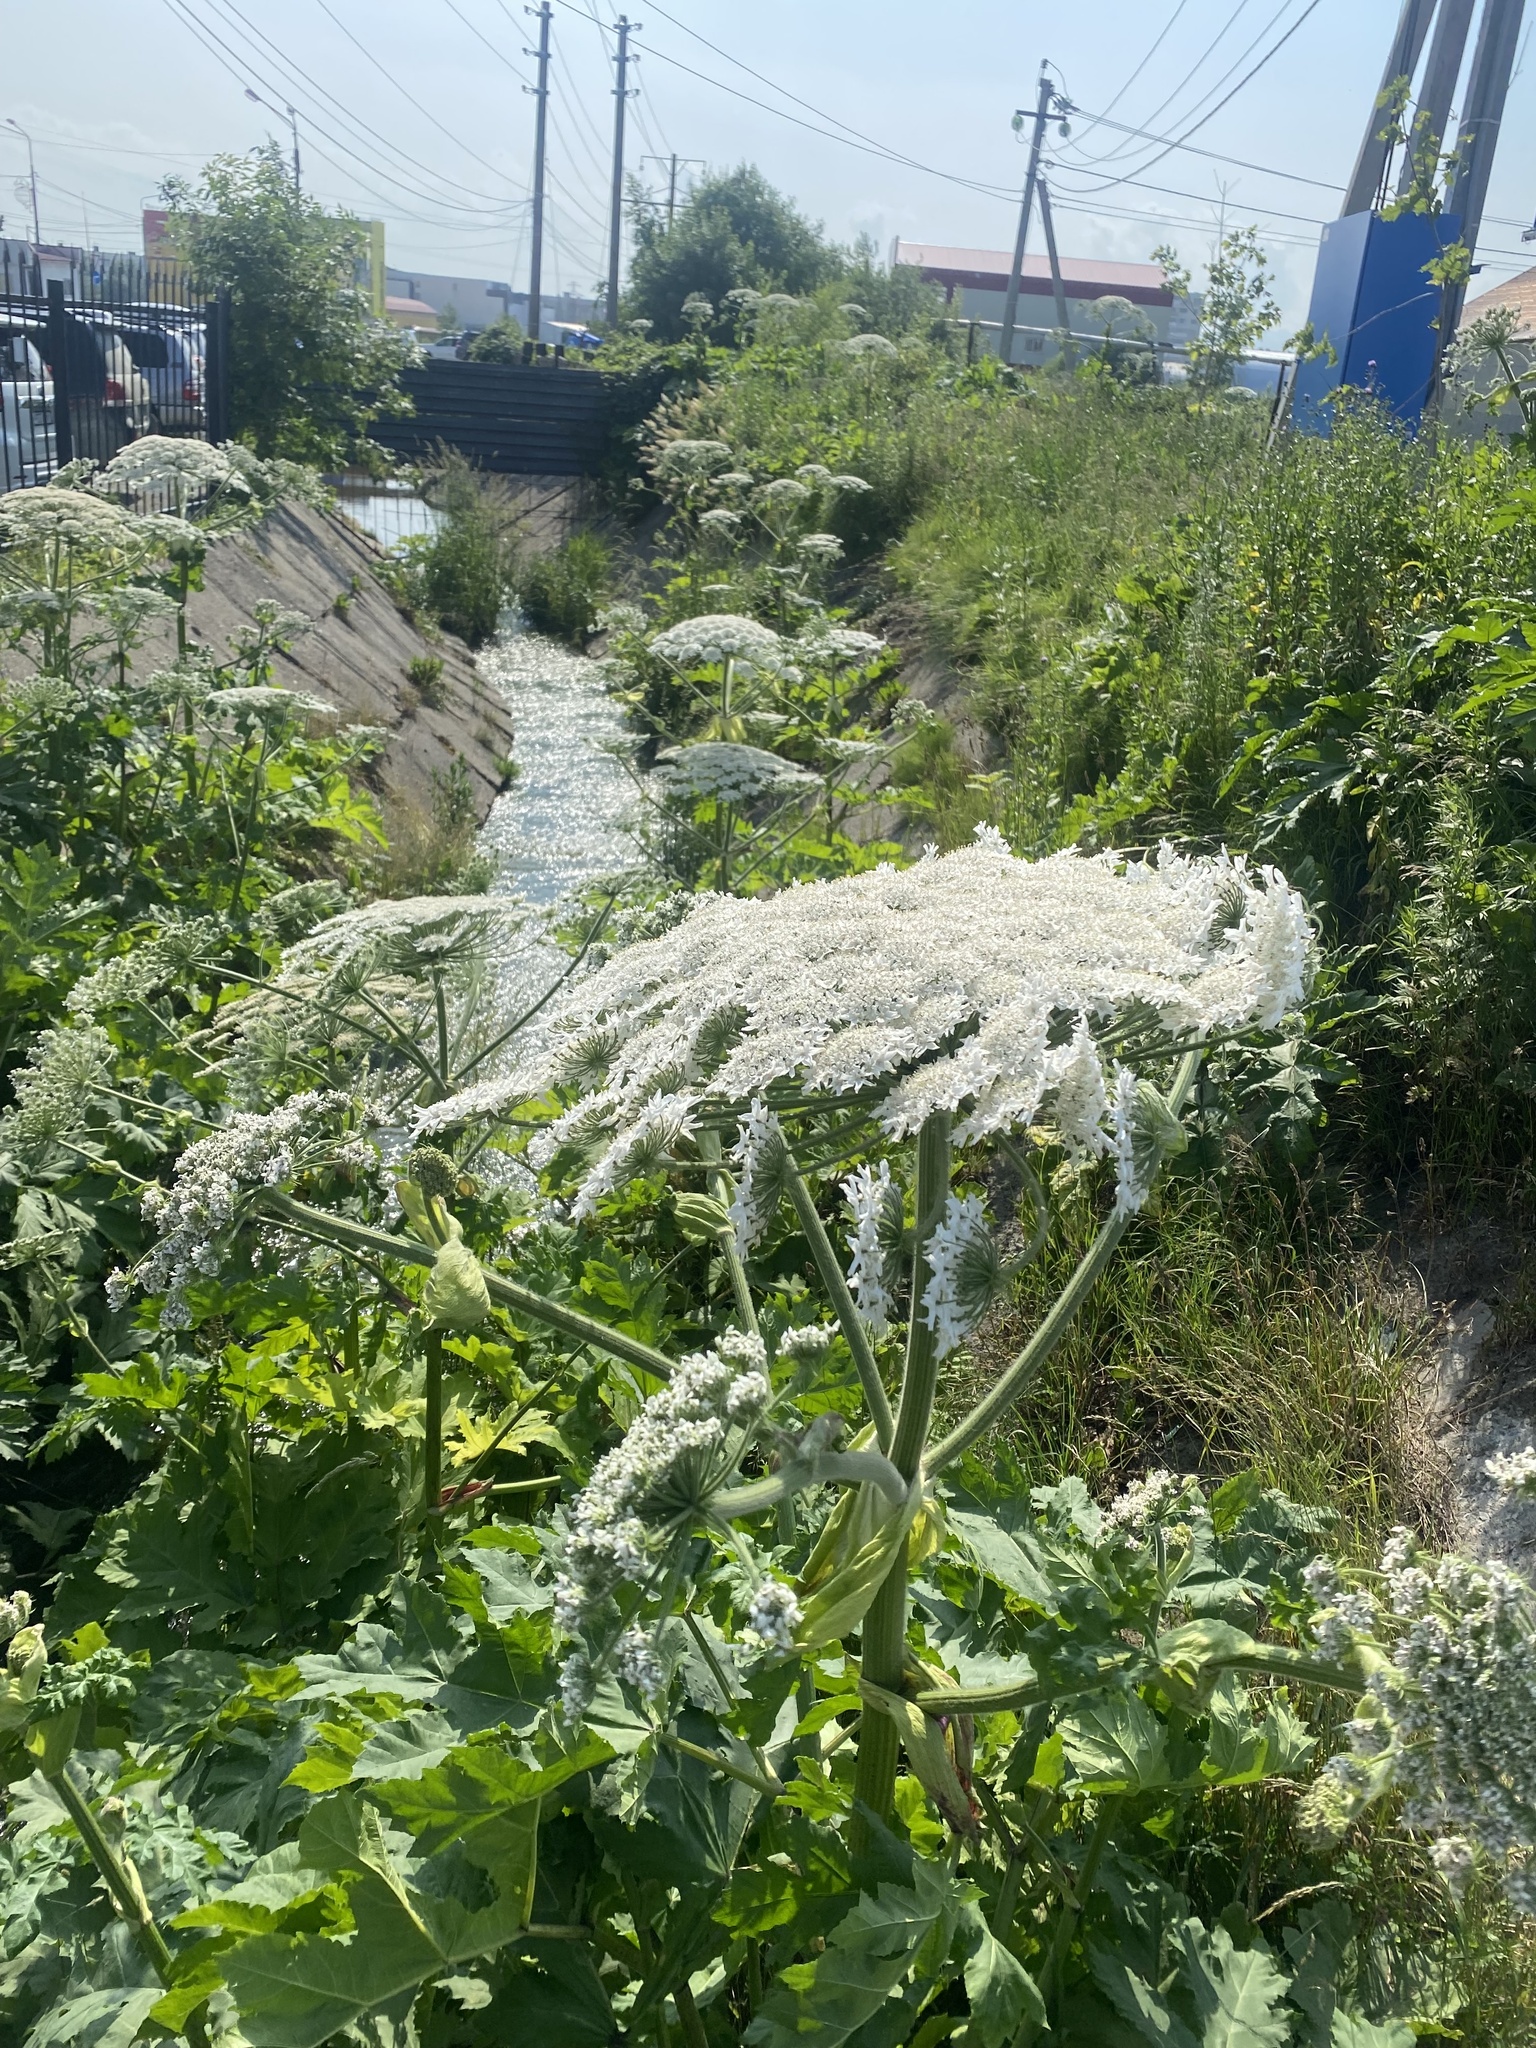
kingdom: Plantae
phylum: Tracheophyta
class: Magnoliopsida
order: Apiales
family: Apiaceae
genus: Heracleum
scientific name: Heracleum sosnowskyi
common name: Sosnowsky's hogweed
